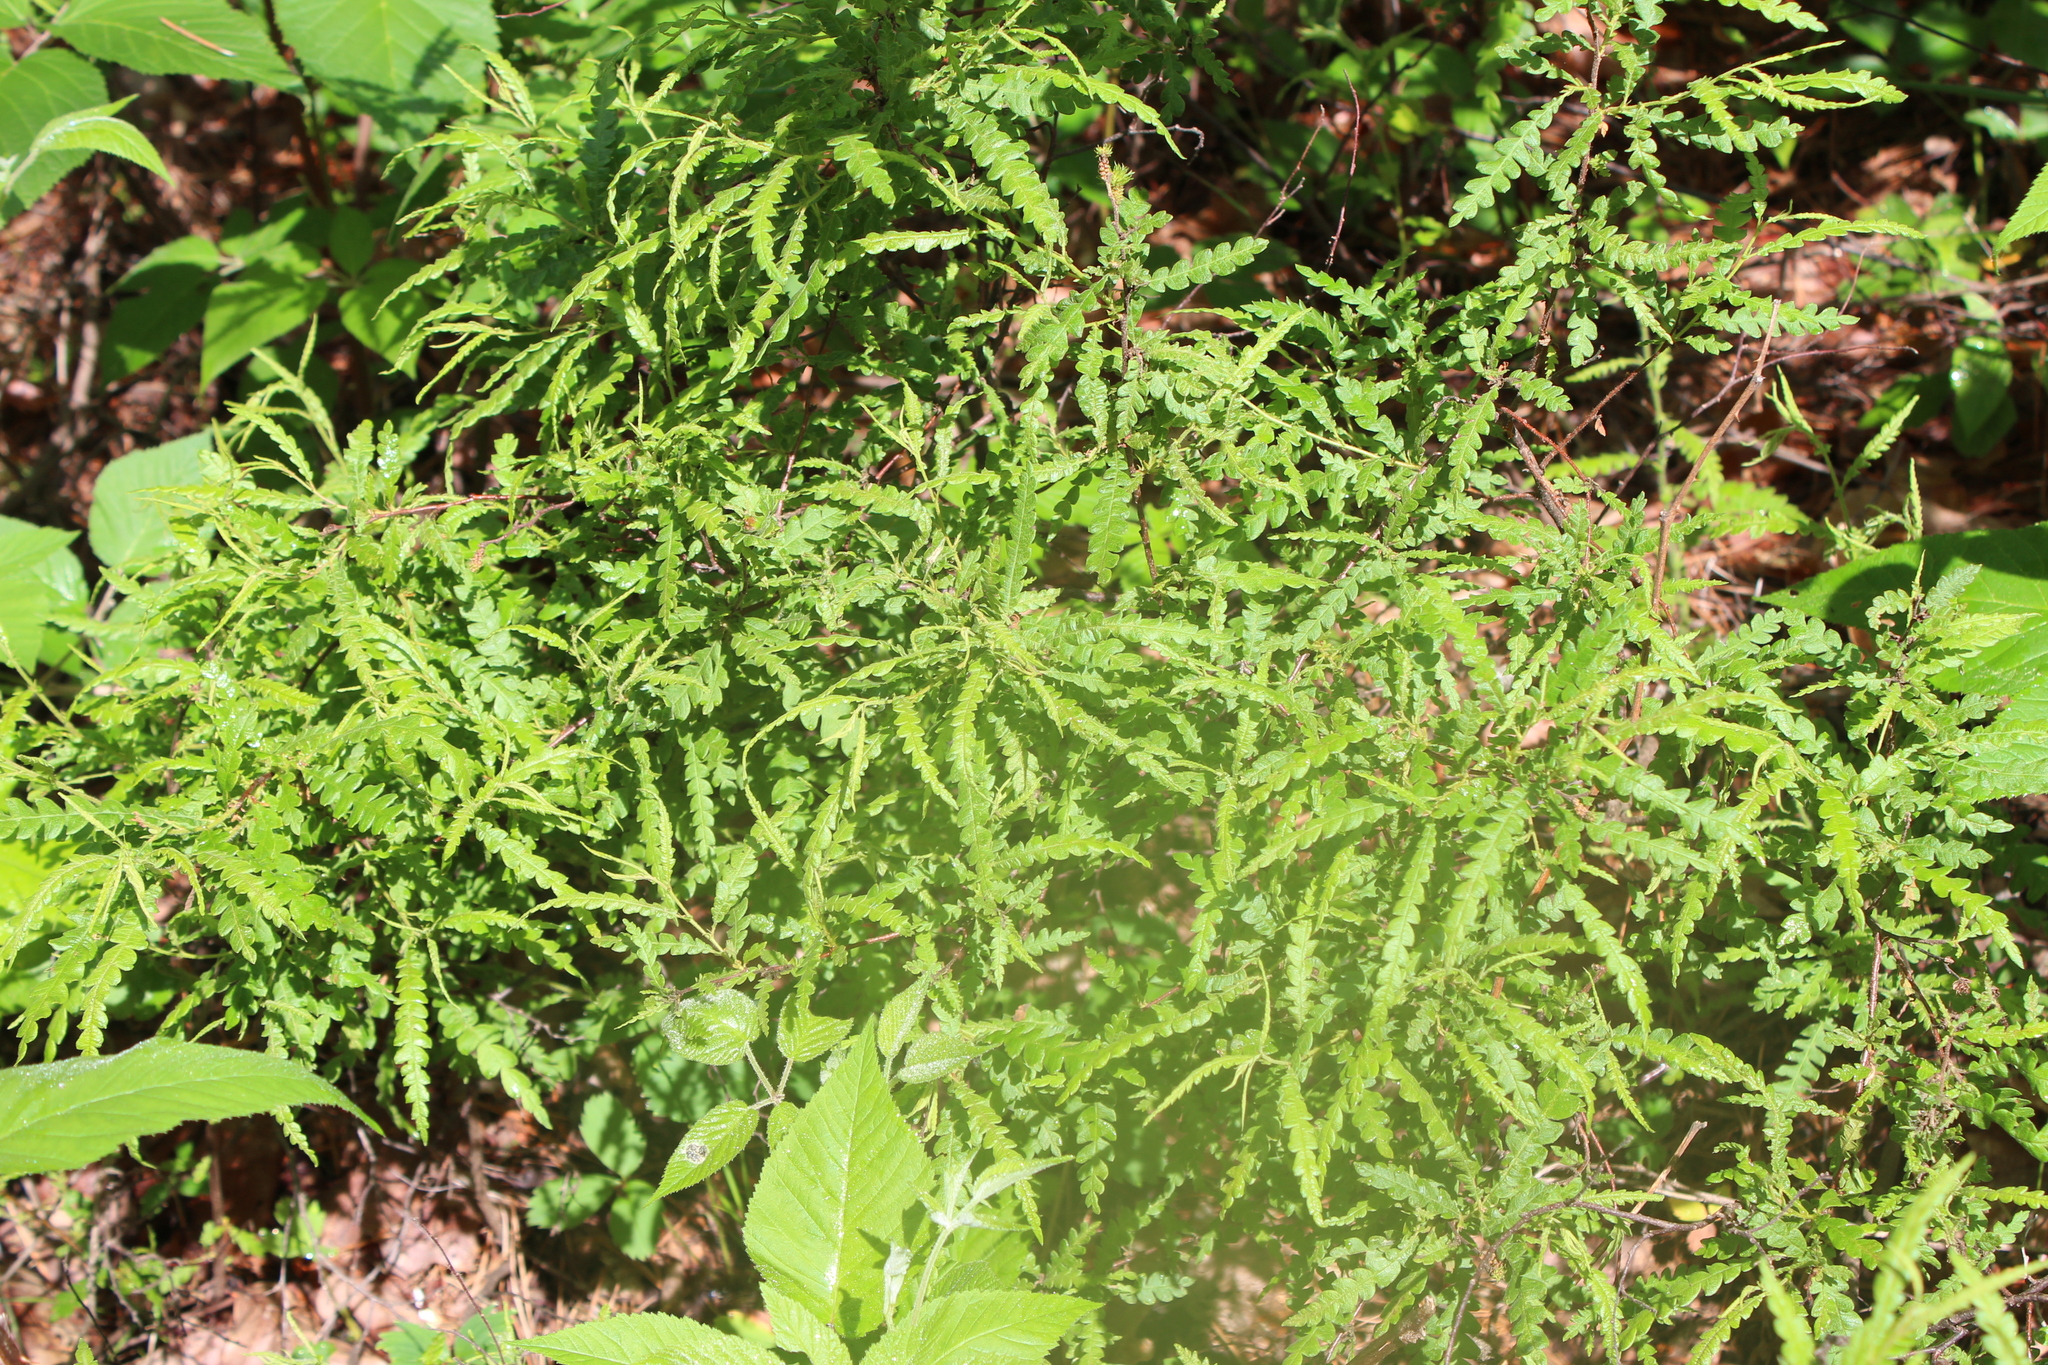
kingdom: Plantae
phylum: Tracheophyta
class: Magnoliopsida
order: Fagales
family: Myricaceae
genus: Comptonia
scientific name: Comptonia peregrina
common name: Sweet-fern
